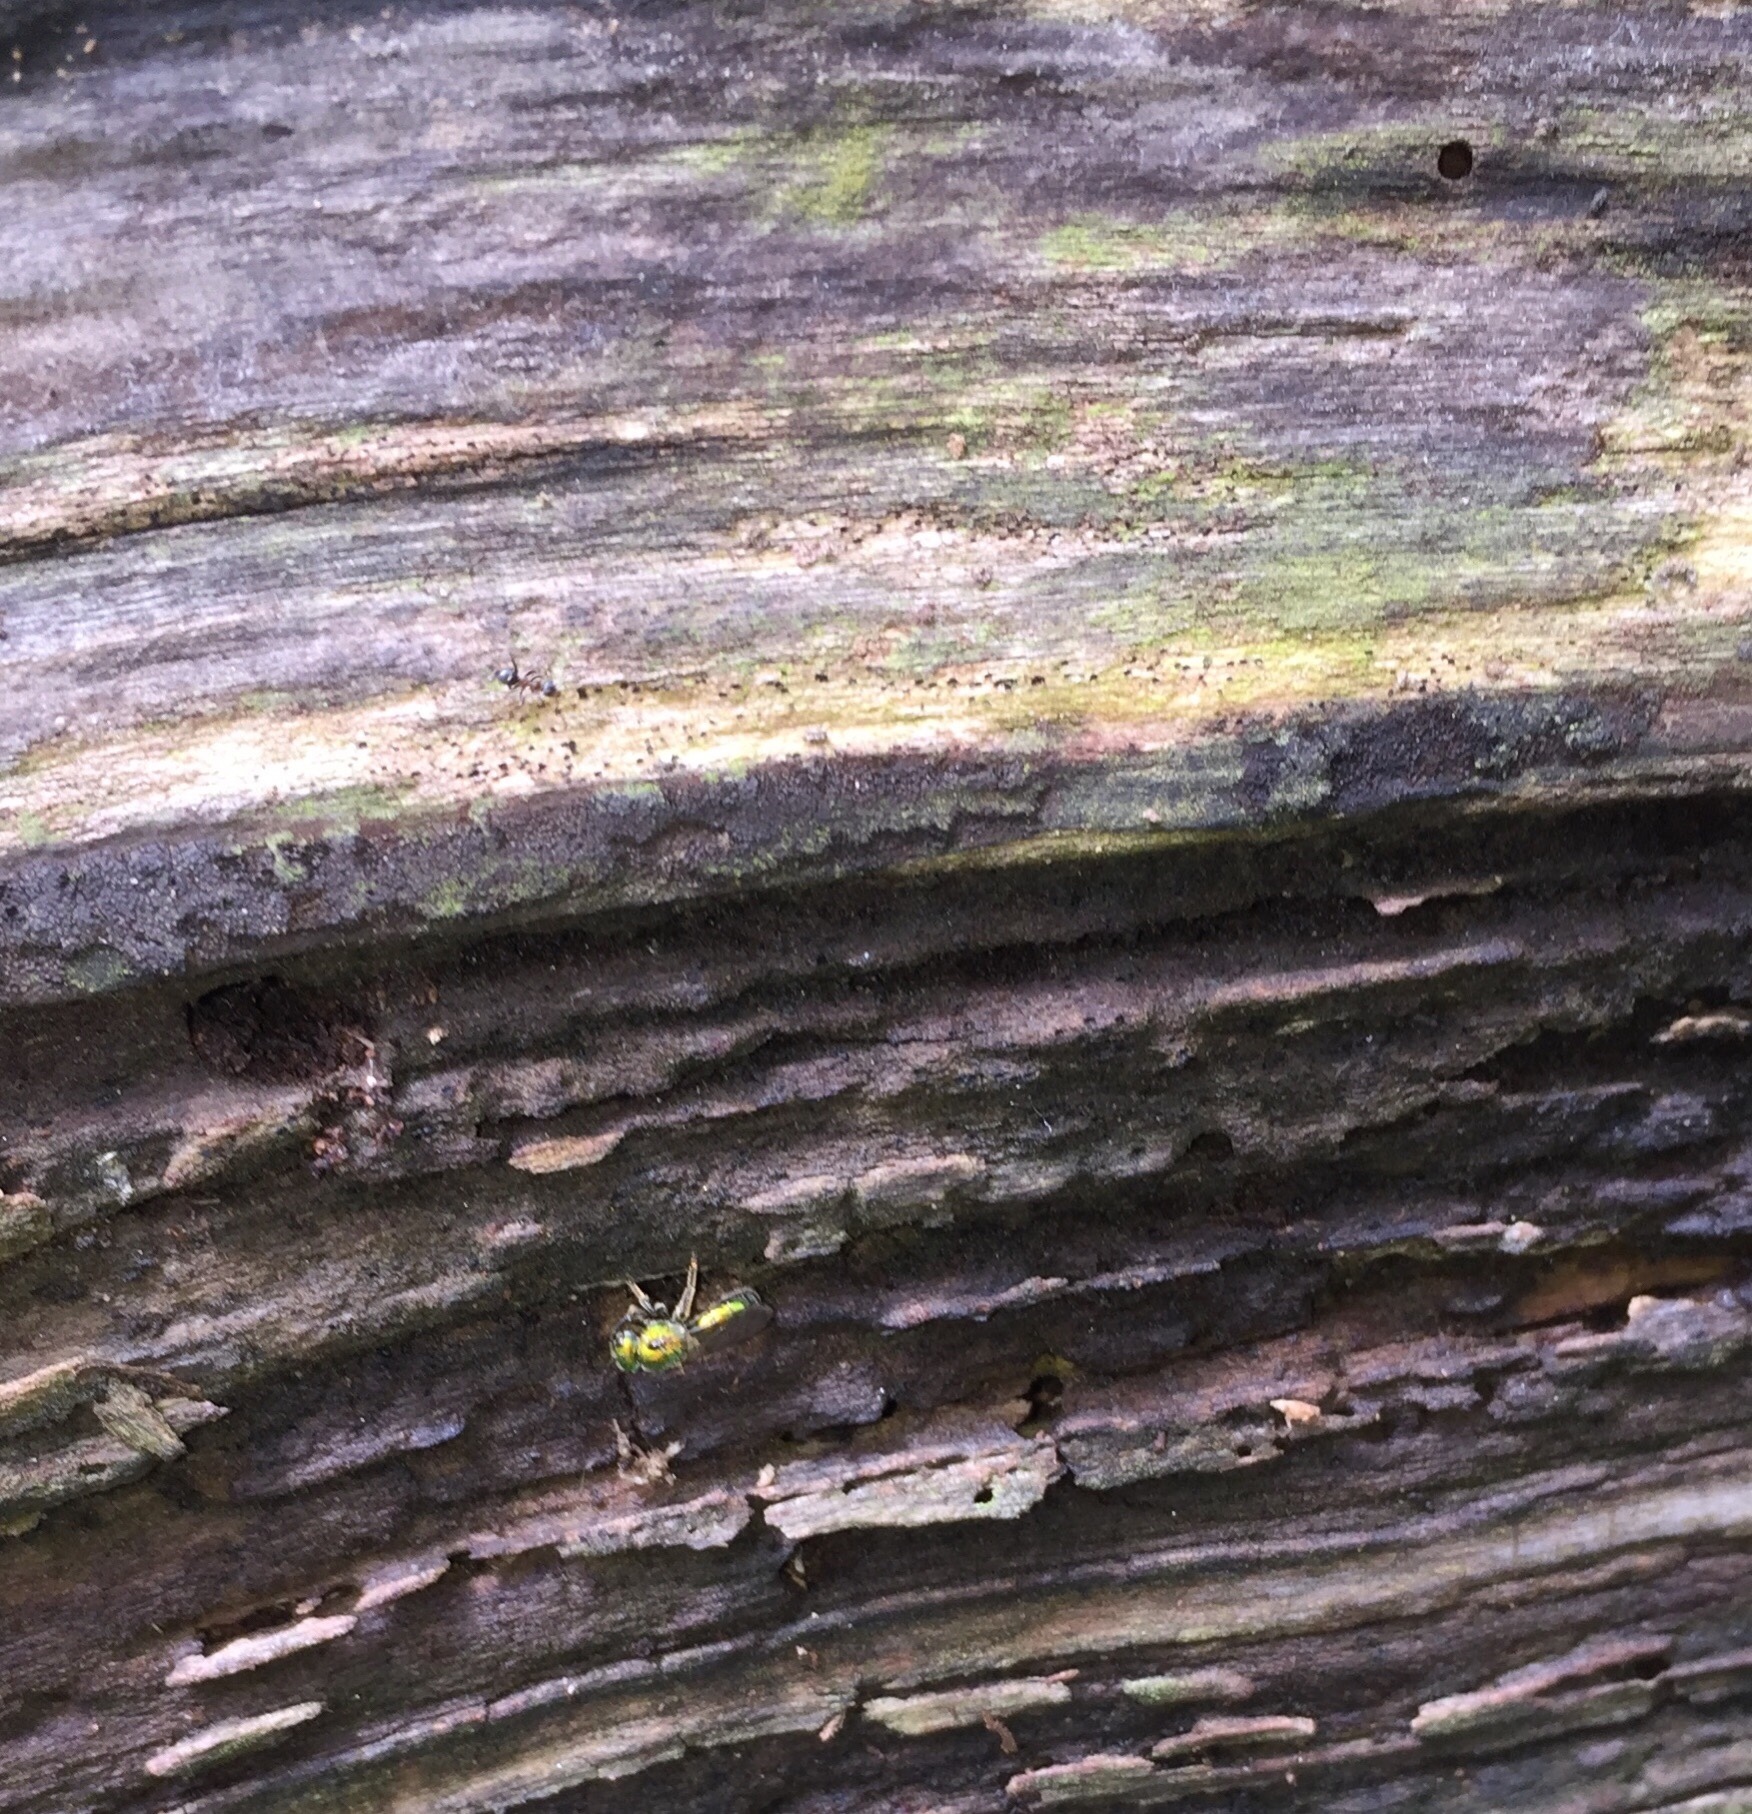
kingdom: Animalia
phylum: Arthropoda
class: Insecta
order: Hymenoptera
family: Halictidae
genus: Augochlora
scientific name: Augochlora pura
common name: Pure green sweat bee
